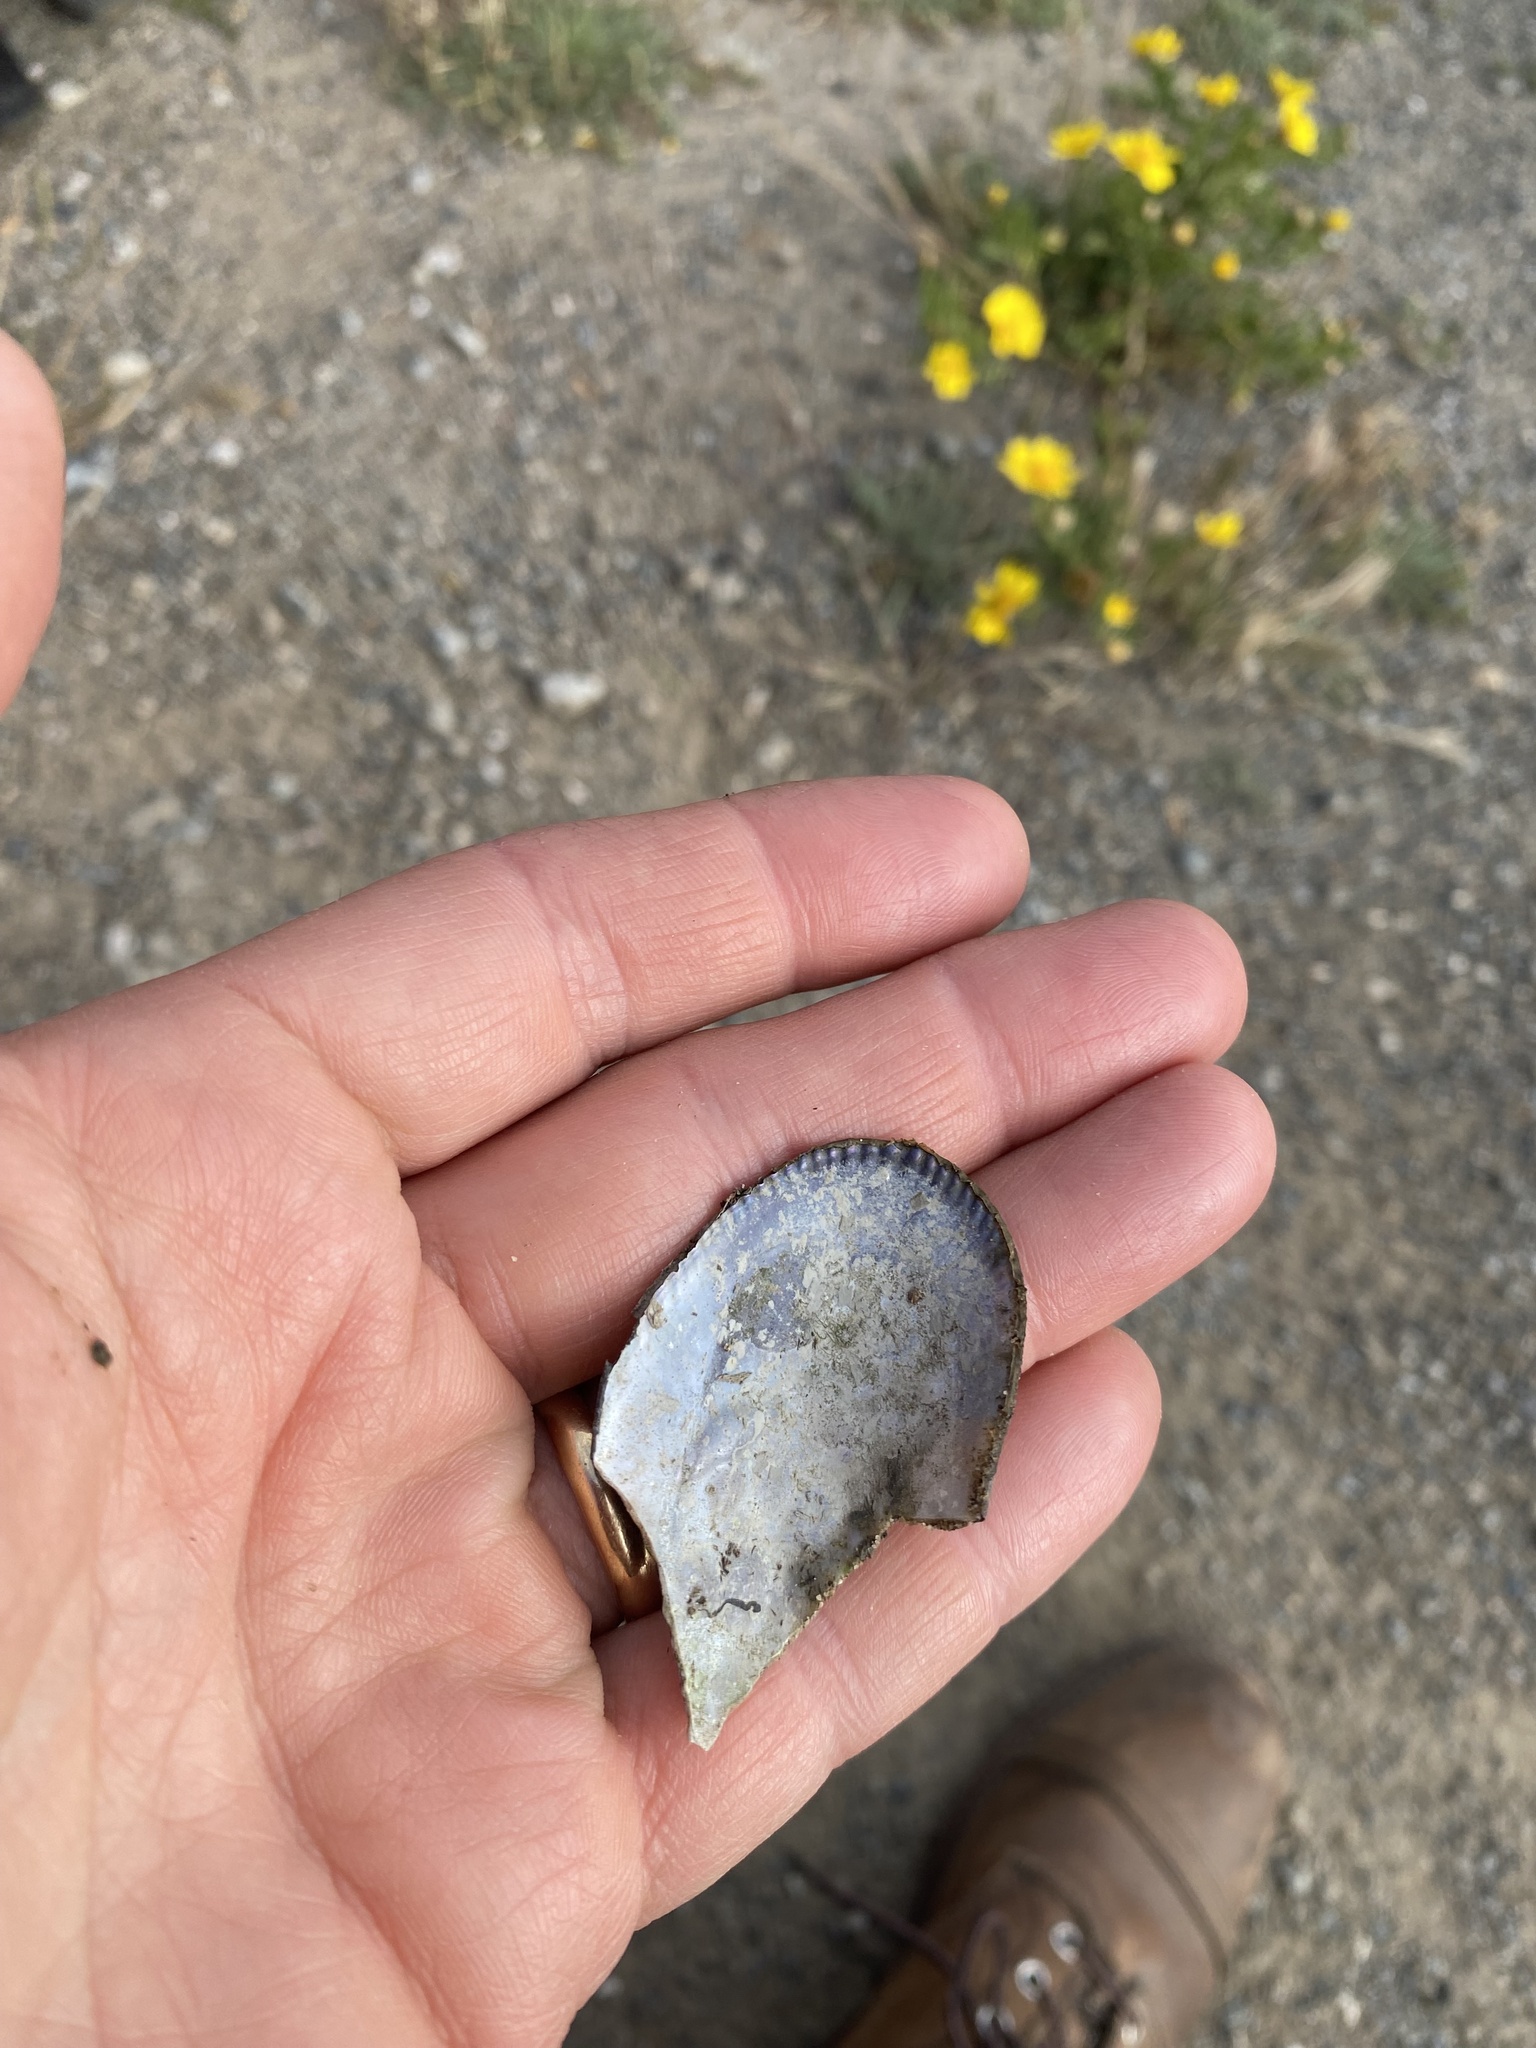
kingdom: Animalia
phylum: Mollusca
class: Bivalvia
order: Mytilida
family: Mytilidae
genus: Geukensia
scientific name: Geukensia demissa
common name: Ribbed mussel
